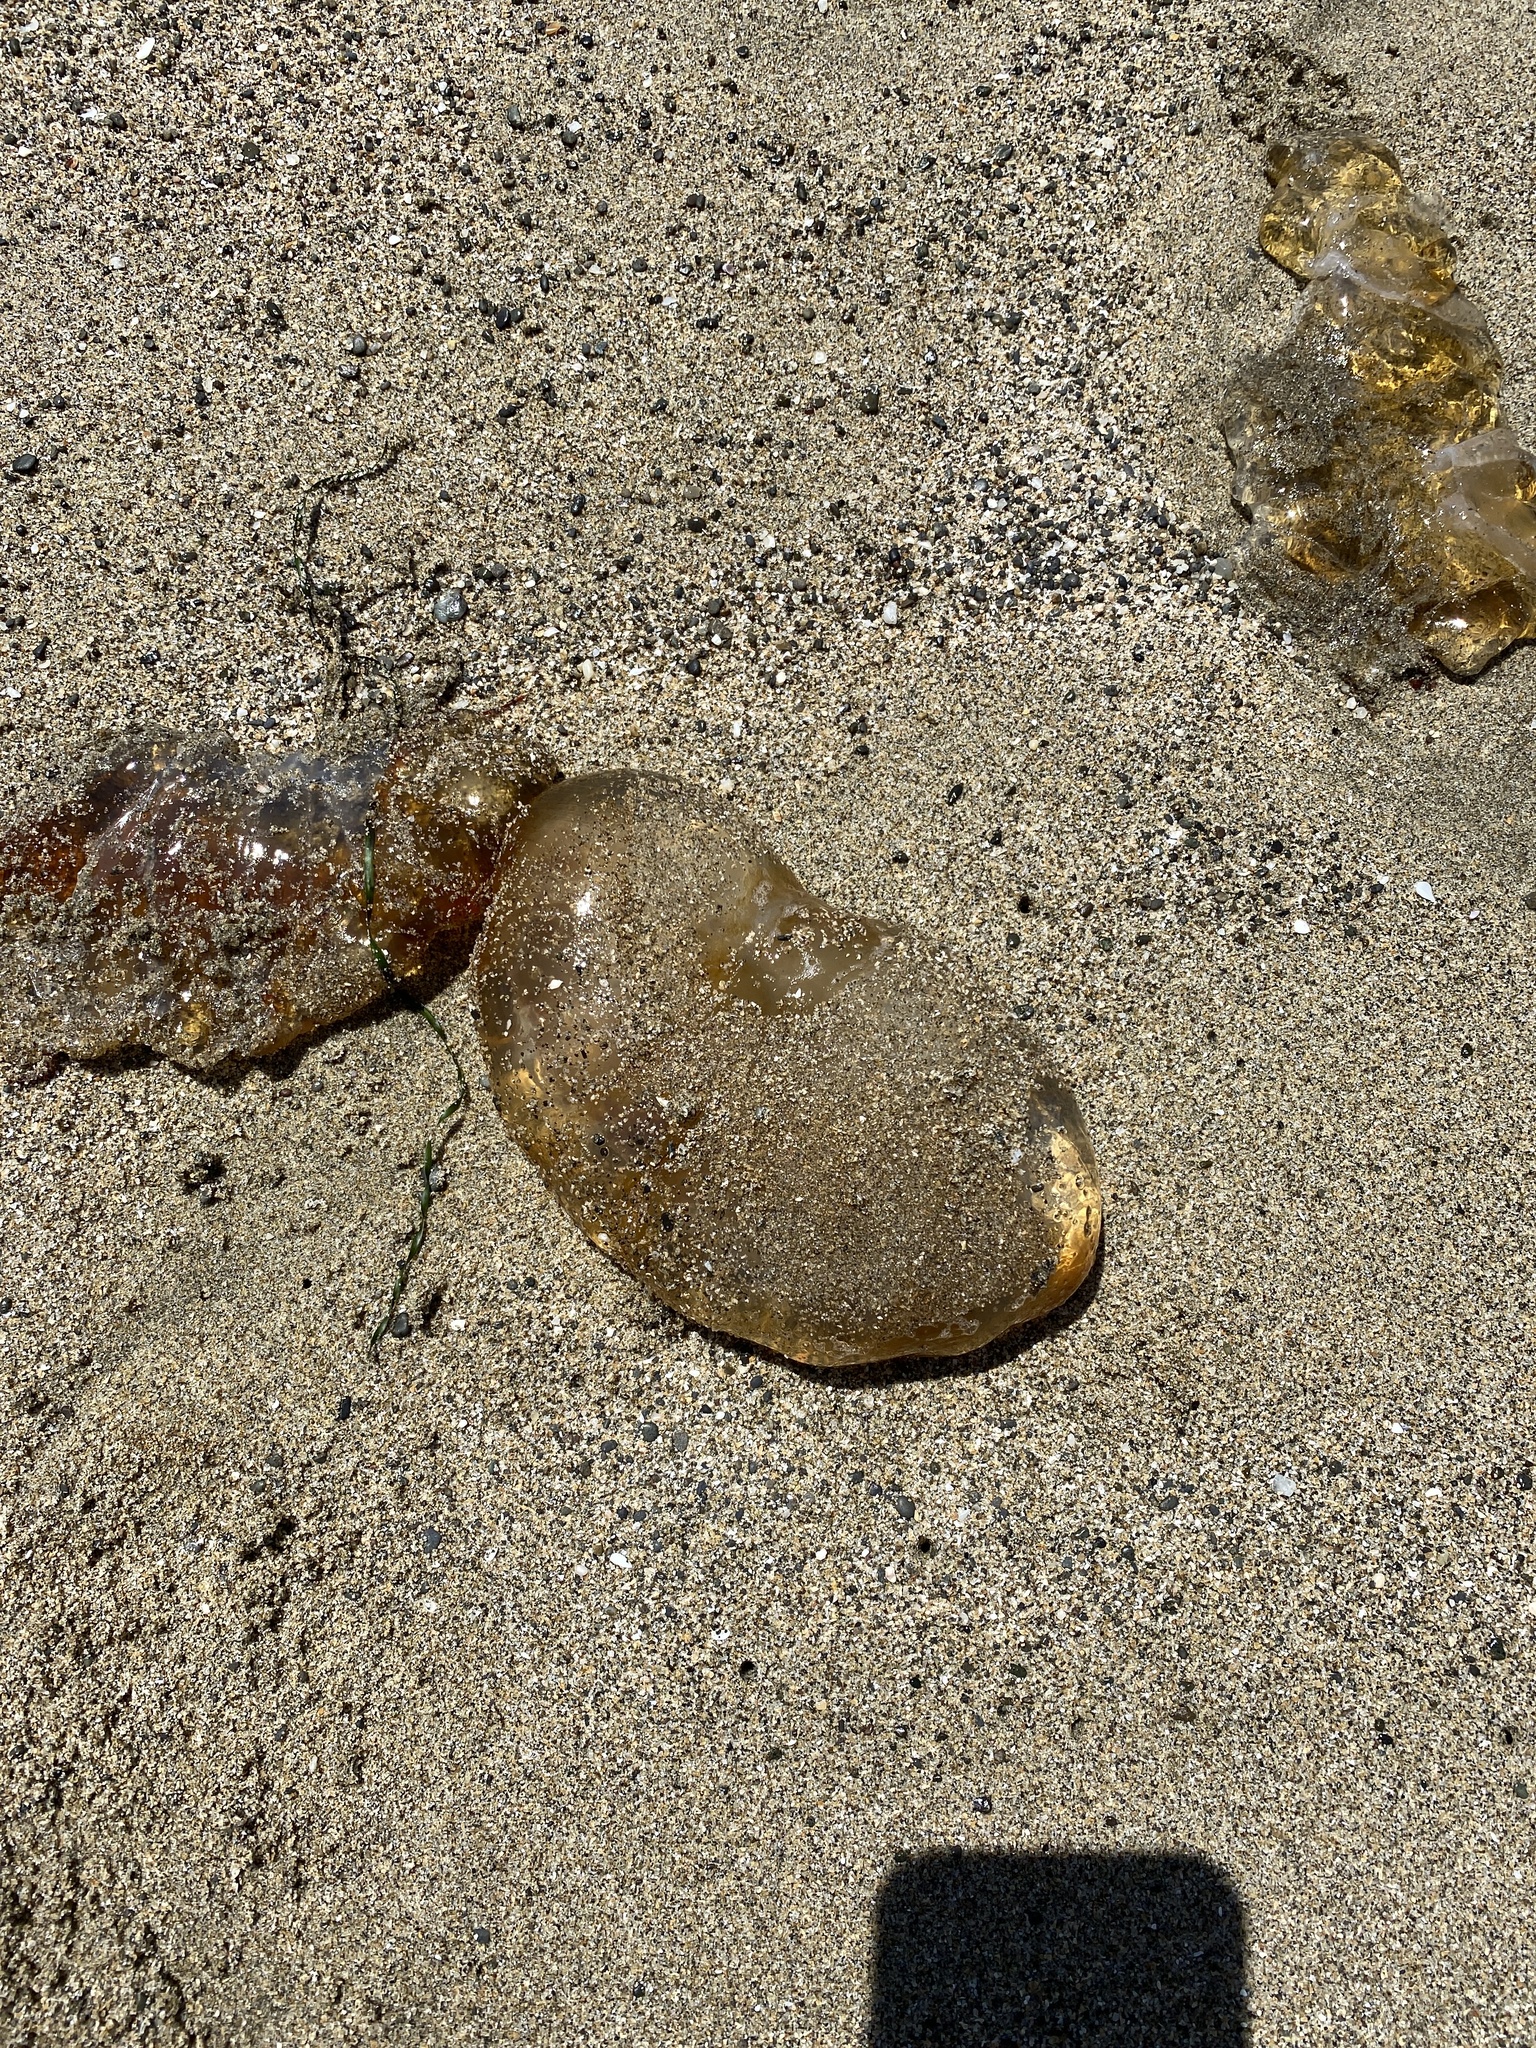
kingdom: Animalia
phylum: Cnidaria
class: Scyphozoa
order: Semaeostomeae
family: Pelagiidae
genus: Chrysaora
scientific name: Chrysaora fuscescens
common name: Sea nettle
